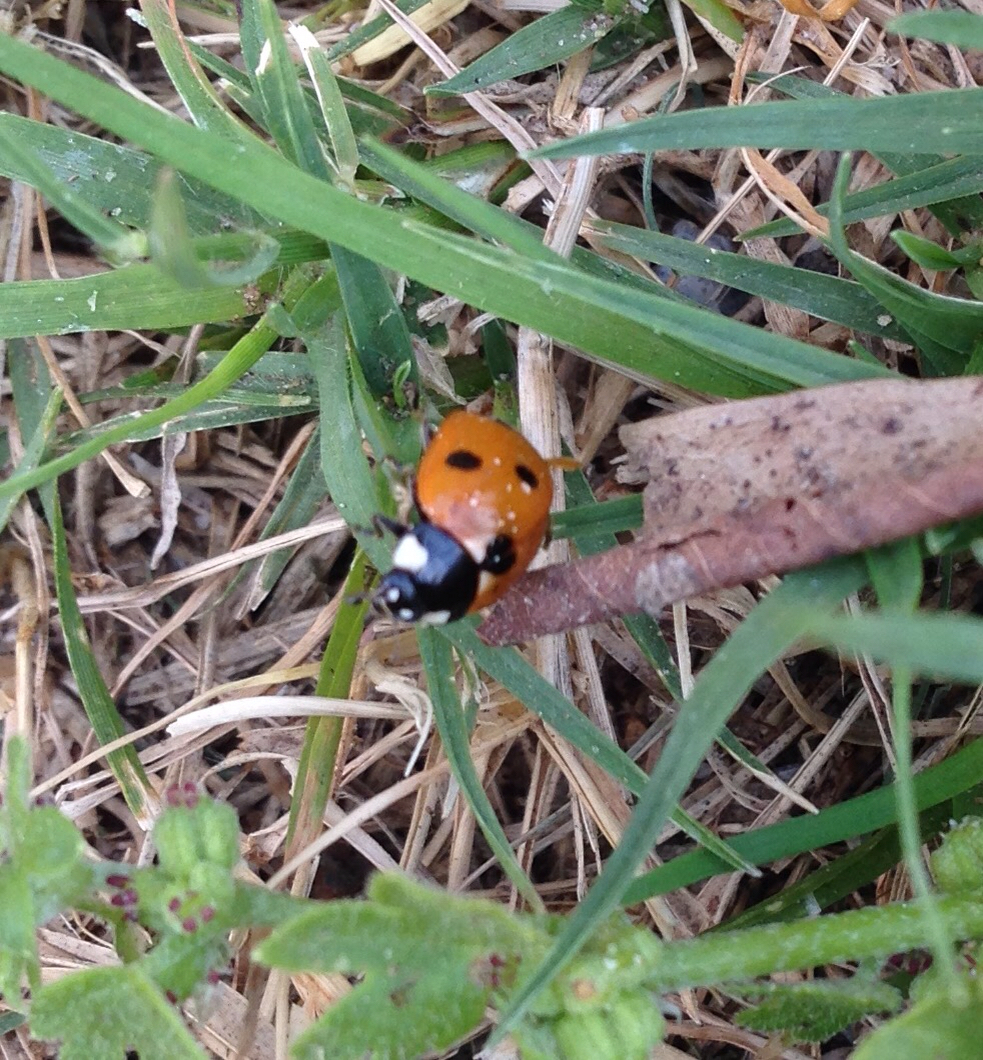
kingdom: Animalia
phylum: Arthropoda
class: Insecta
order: Coleoptera
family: Coccinellidae
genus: Coccinella
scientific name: Coccinella septempunctata
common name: Sevenspotted lady beetle
